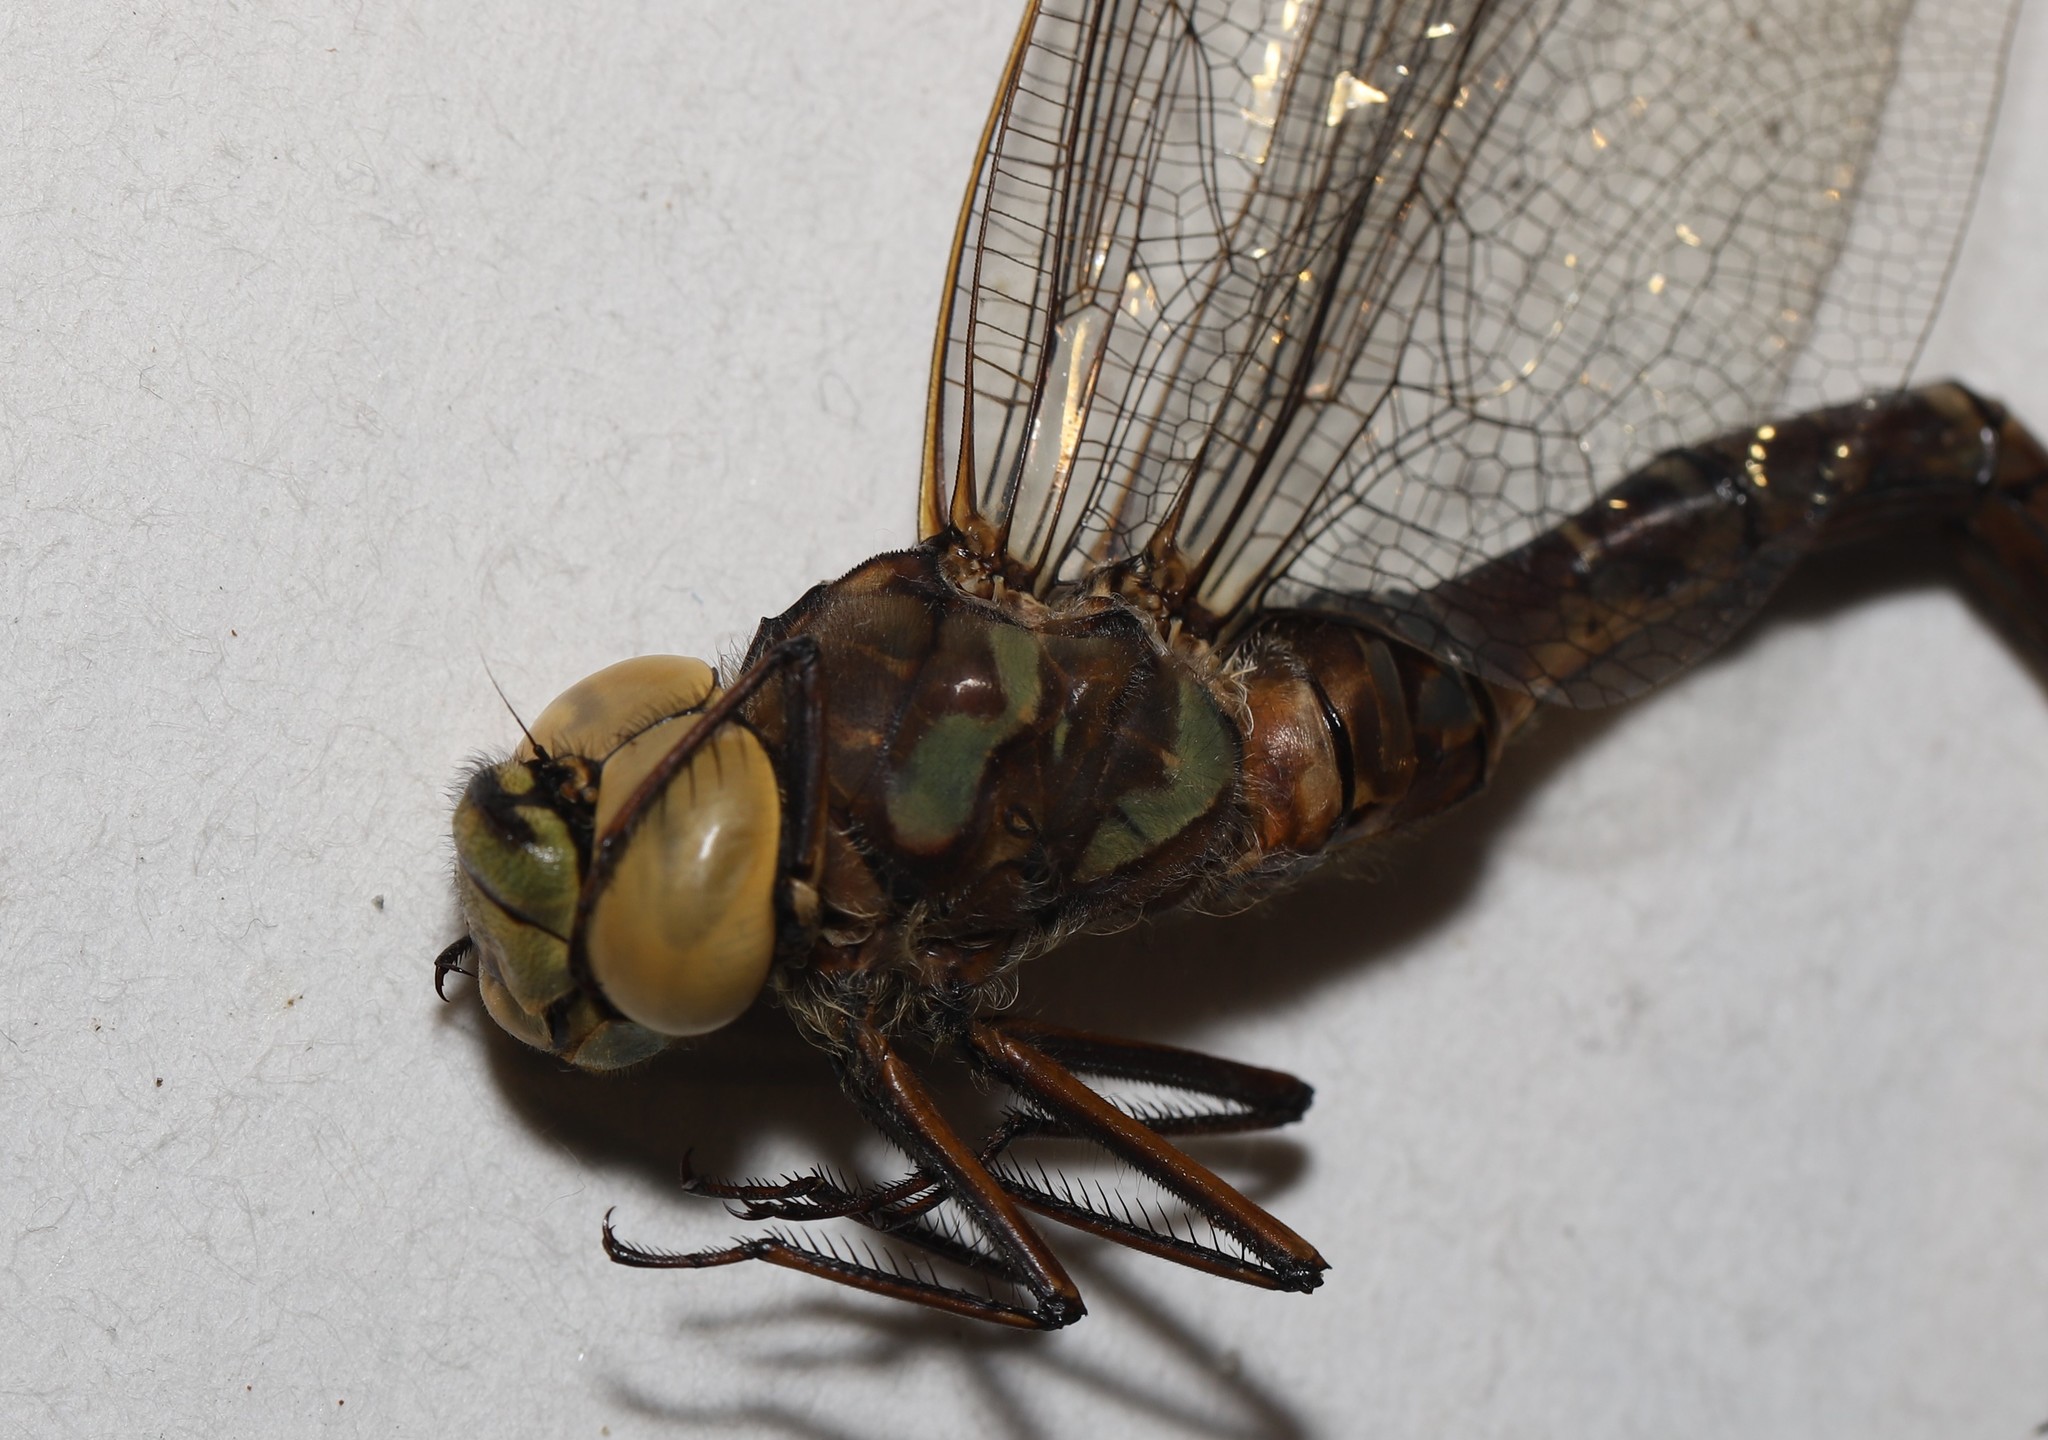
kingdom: Animalia
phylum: Arthropoda
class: Insecta
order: Odonata
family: Aeshnidae
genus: Aeshna
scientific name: Aeshna eremita
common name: Lake darner
